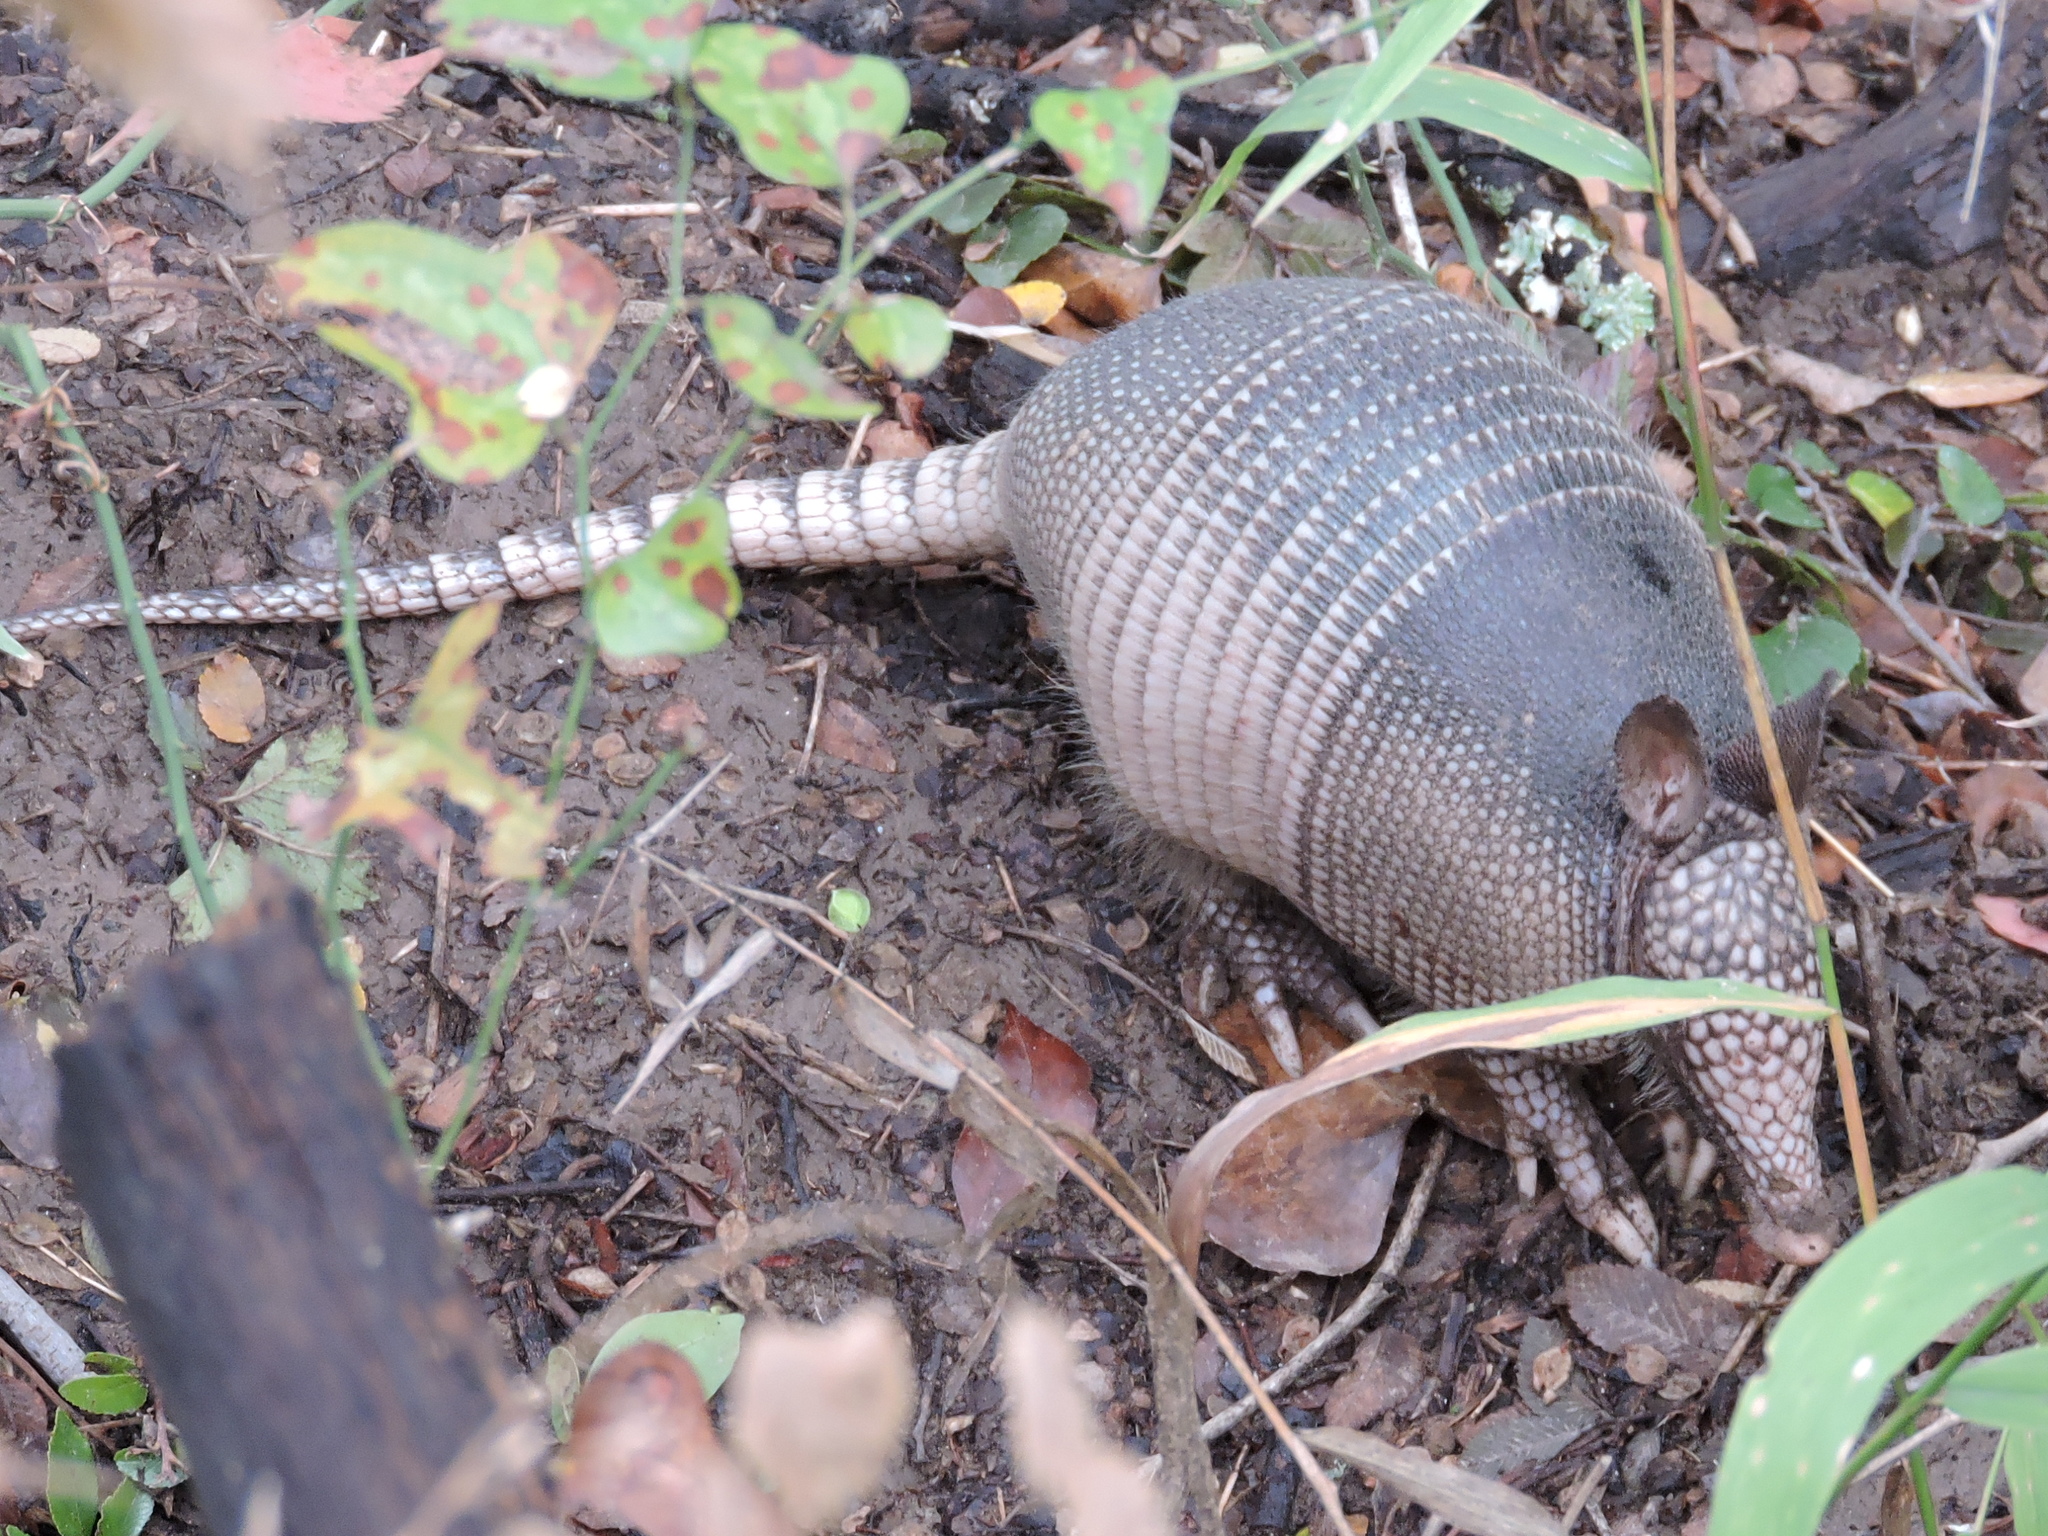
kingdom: Animalia
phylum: Chordata
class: Mammalia
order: Cingulata
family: Dasypodidae
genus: Dasypus
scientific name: Dasypus novemcinctus
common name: Nine-banded armadillo
